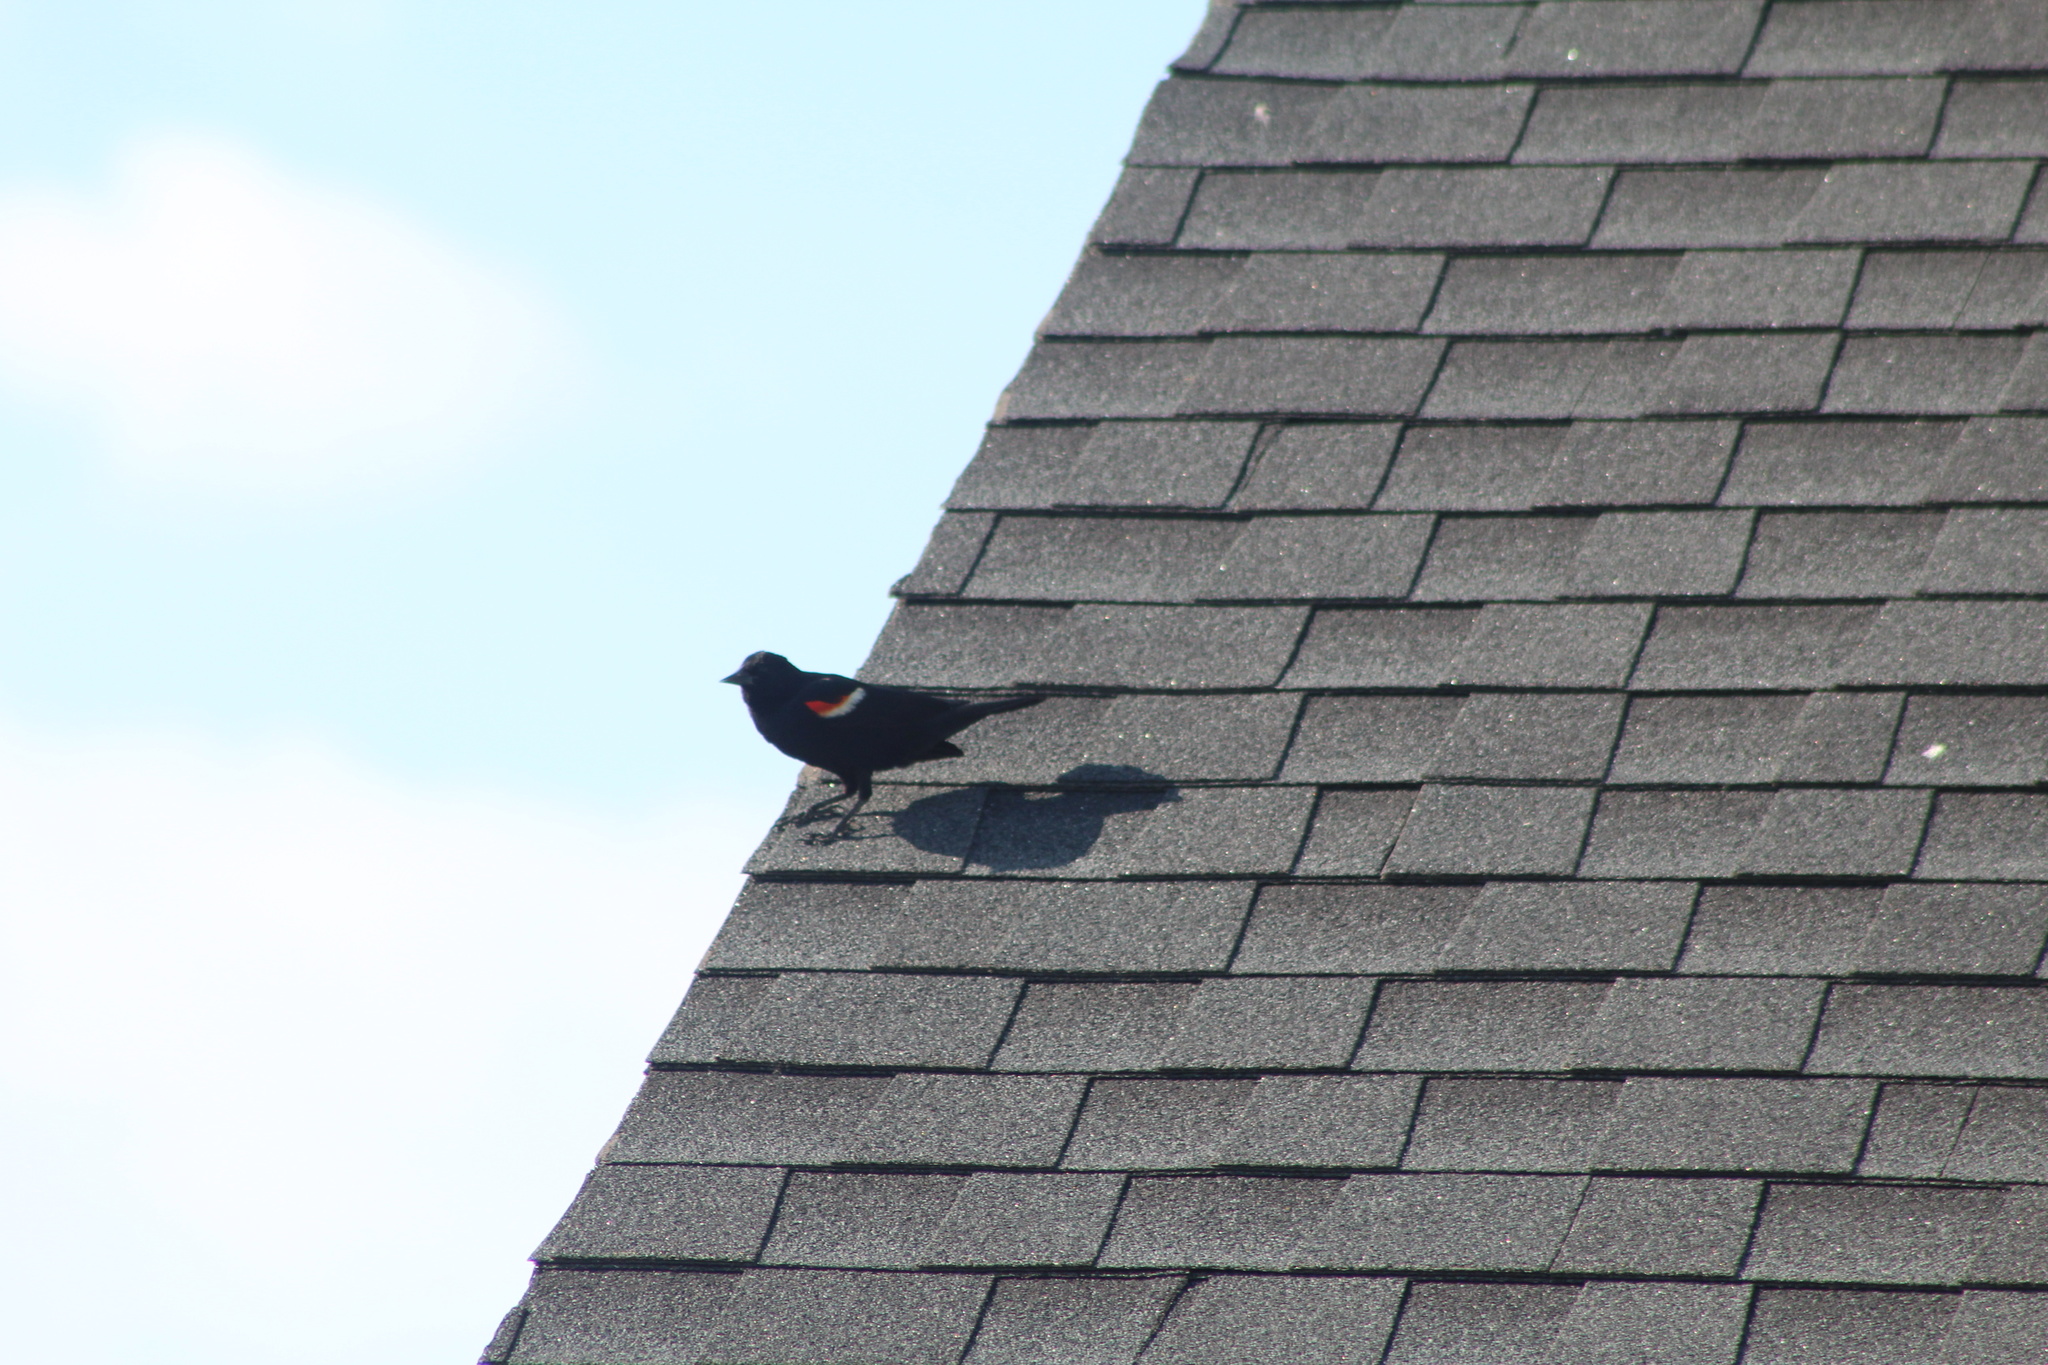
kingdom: Animalia
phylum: Chordata
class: Aves
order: Passeriformes
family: Icteridae
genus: Agelaius
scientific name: Agelaius phoeniceus
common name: Red-winged blackbird
